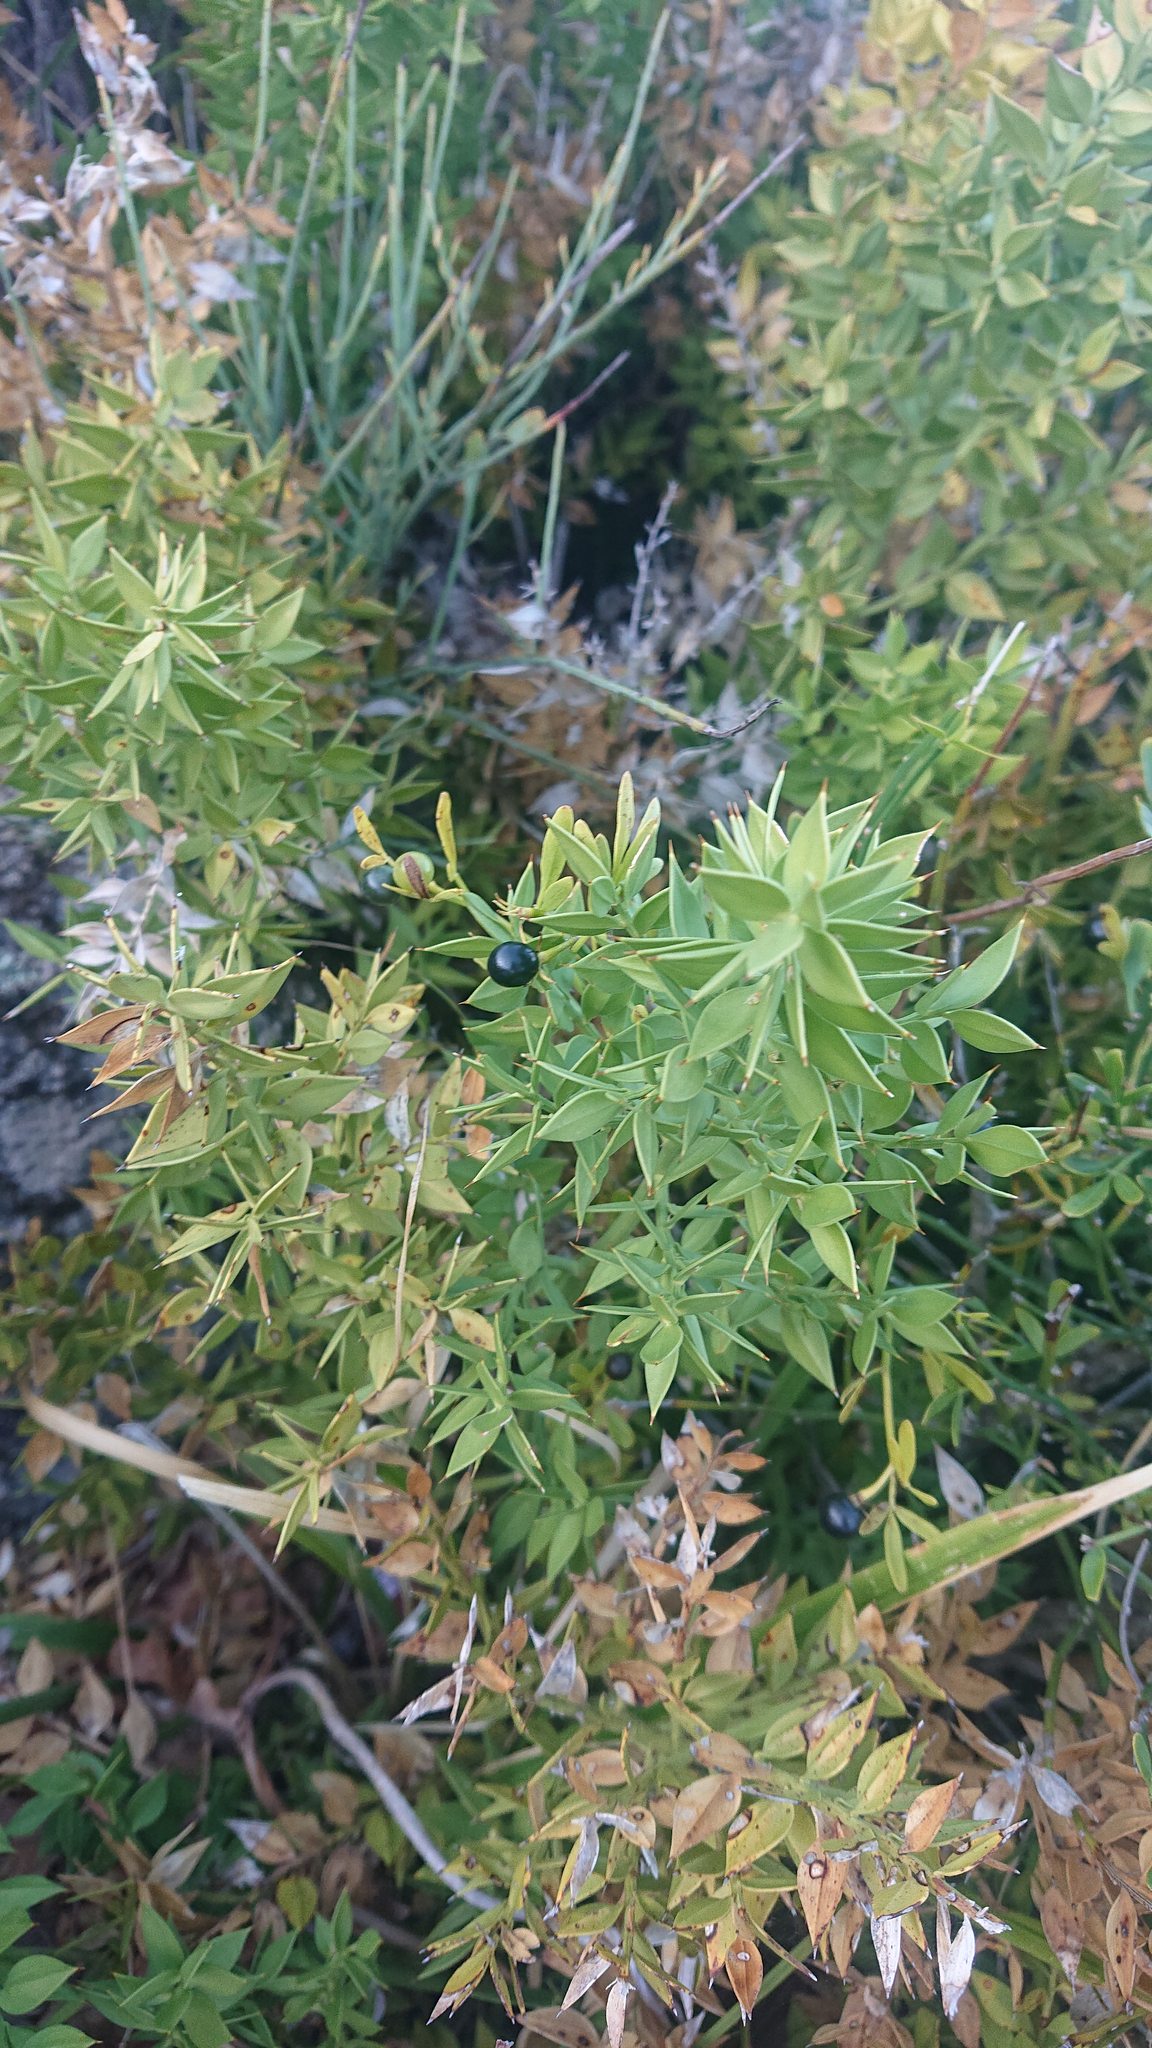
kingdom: Plantae
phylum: Tracheophyta
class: Liliopsida
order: Asparagales
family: Asparagaceae
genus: Ruscus
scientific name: Ruscus aculeatus
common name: Butcher's-broom
